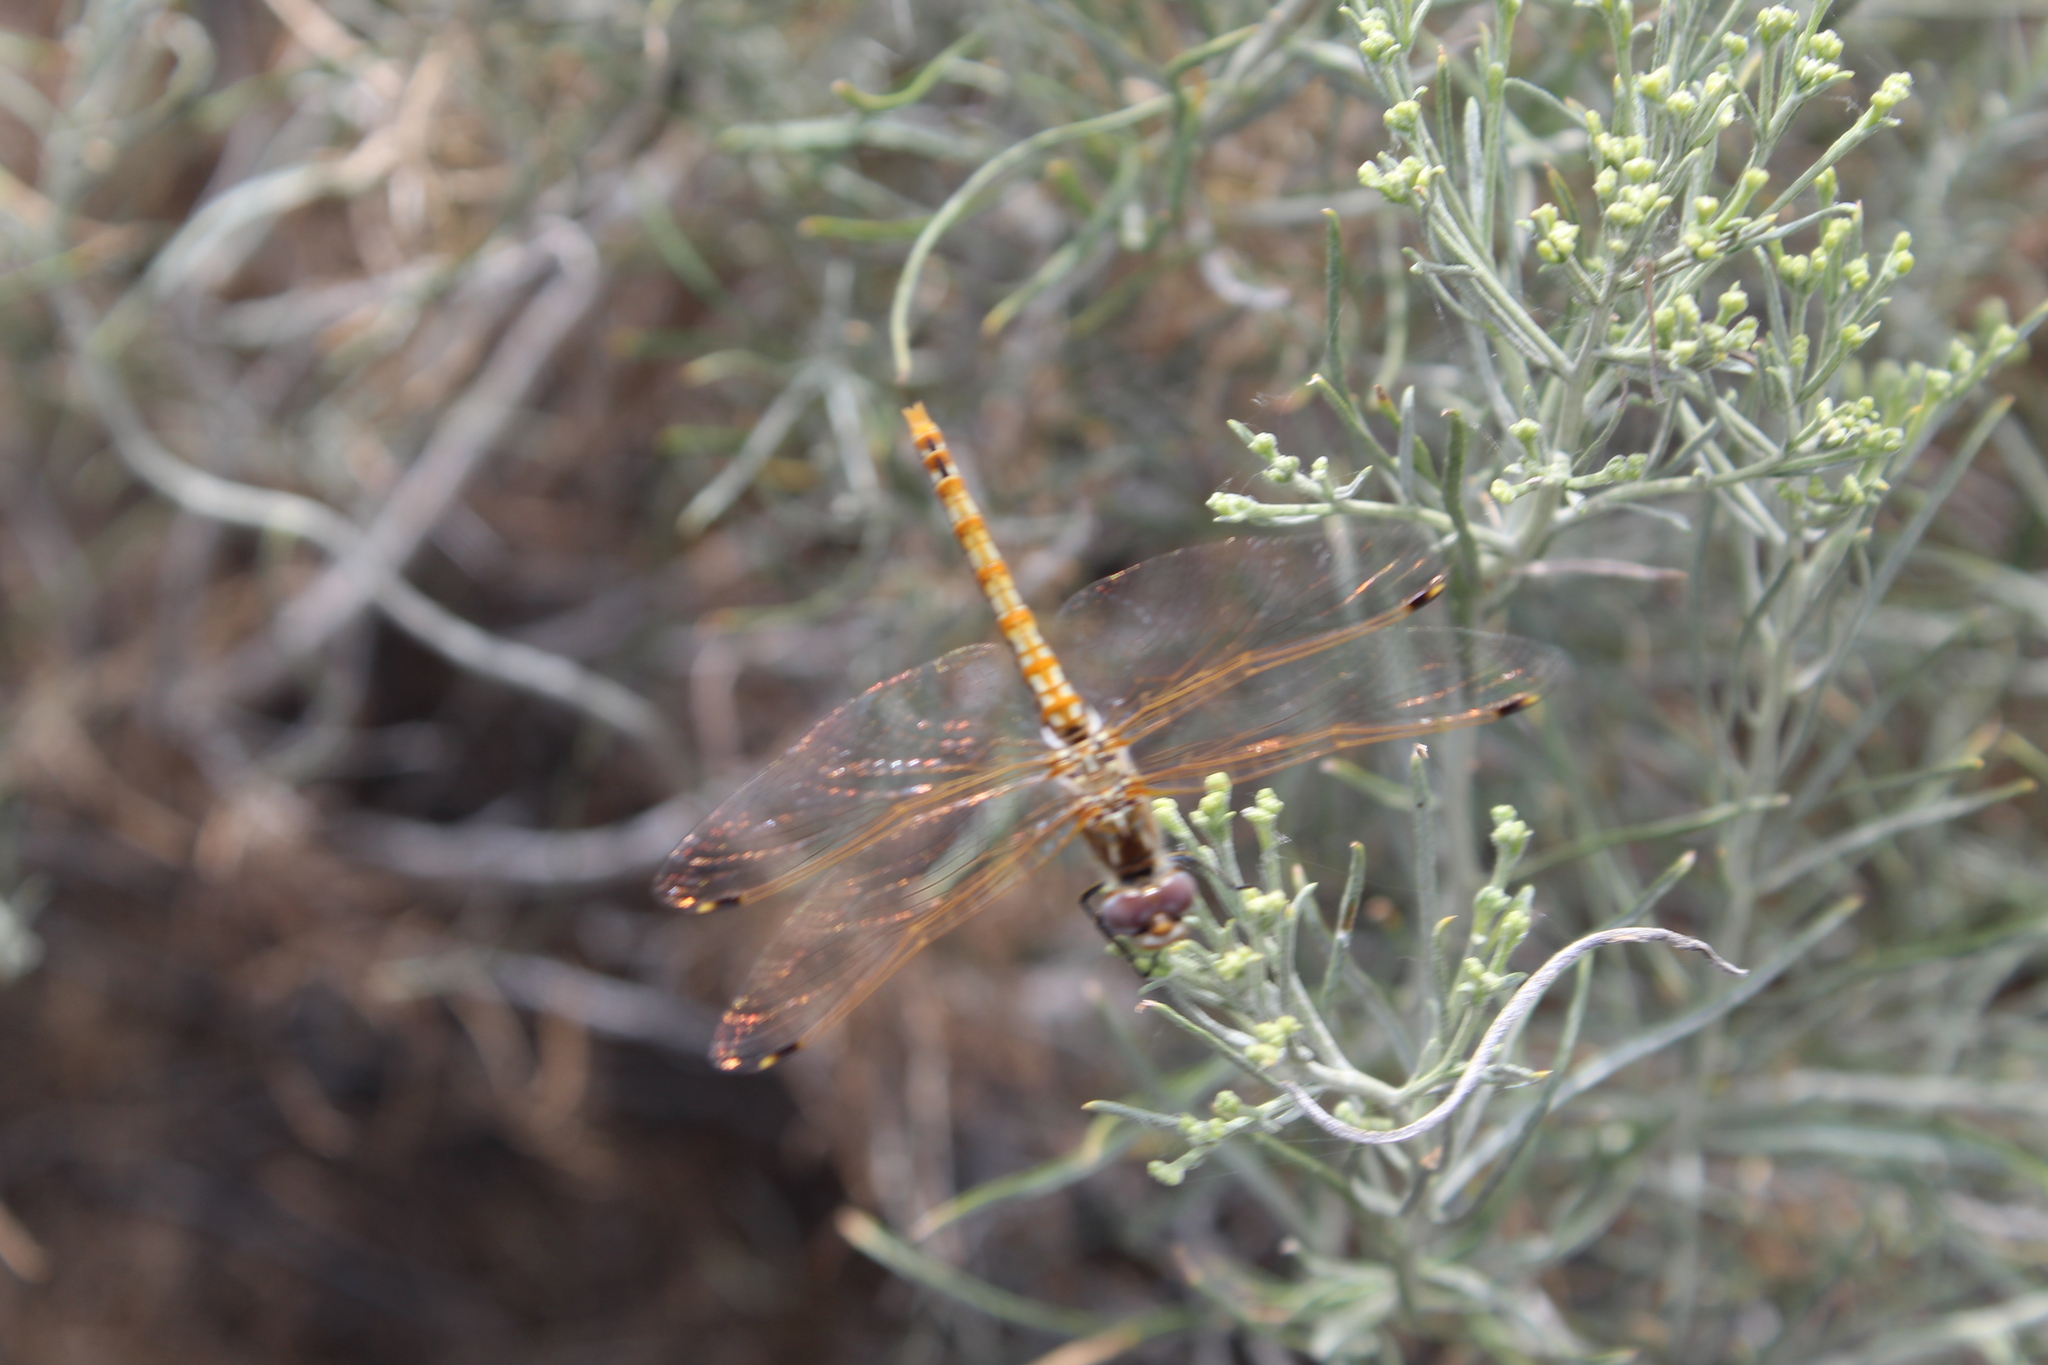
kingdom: Animalia
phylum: Arthropoda
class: Insecta
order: Odonata
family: Libellulidae
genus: Sympetrum
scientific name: Sympetrum corruptum
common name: Variegated meadowhawk
